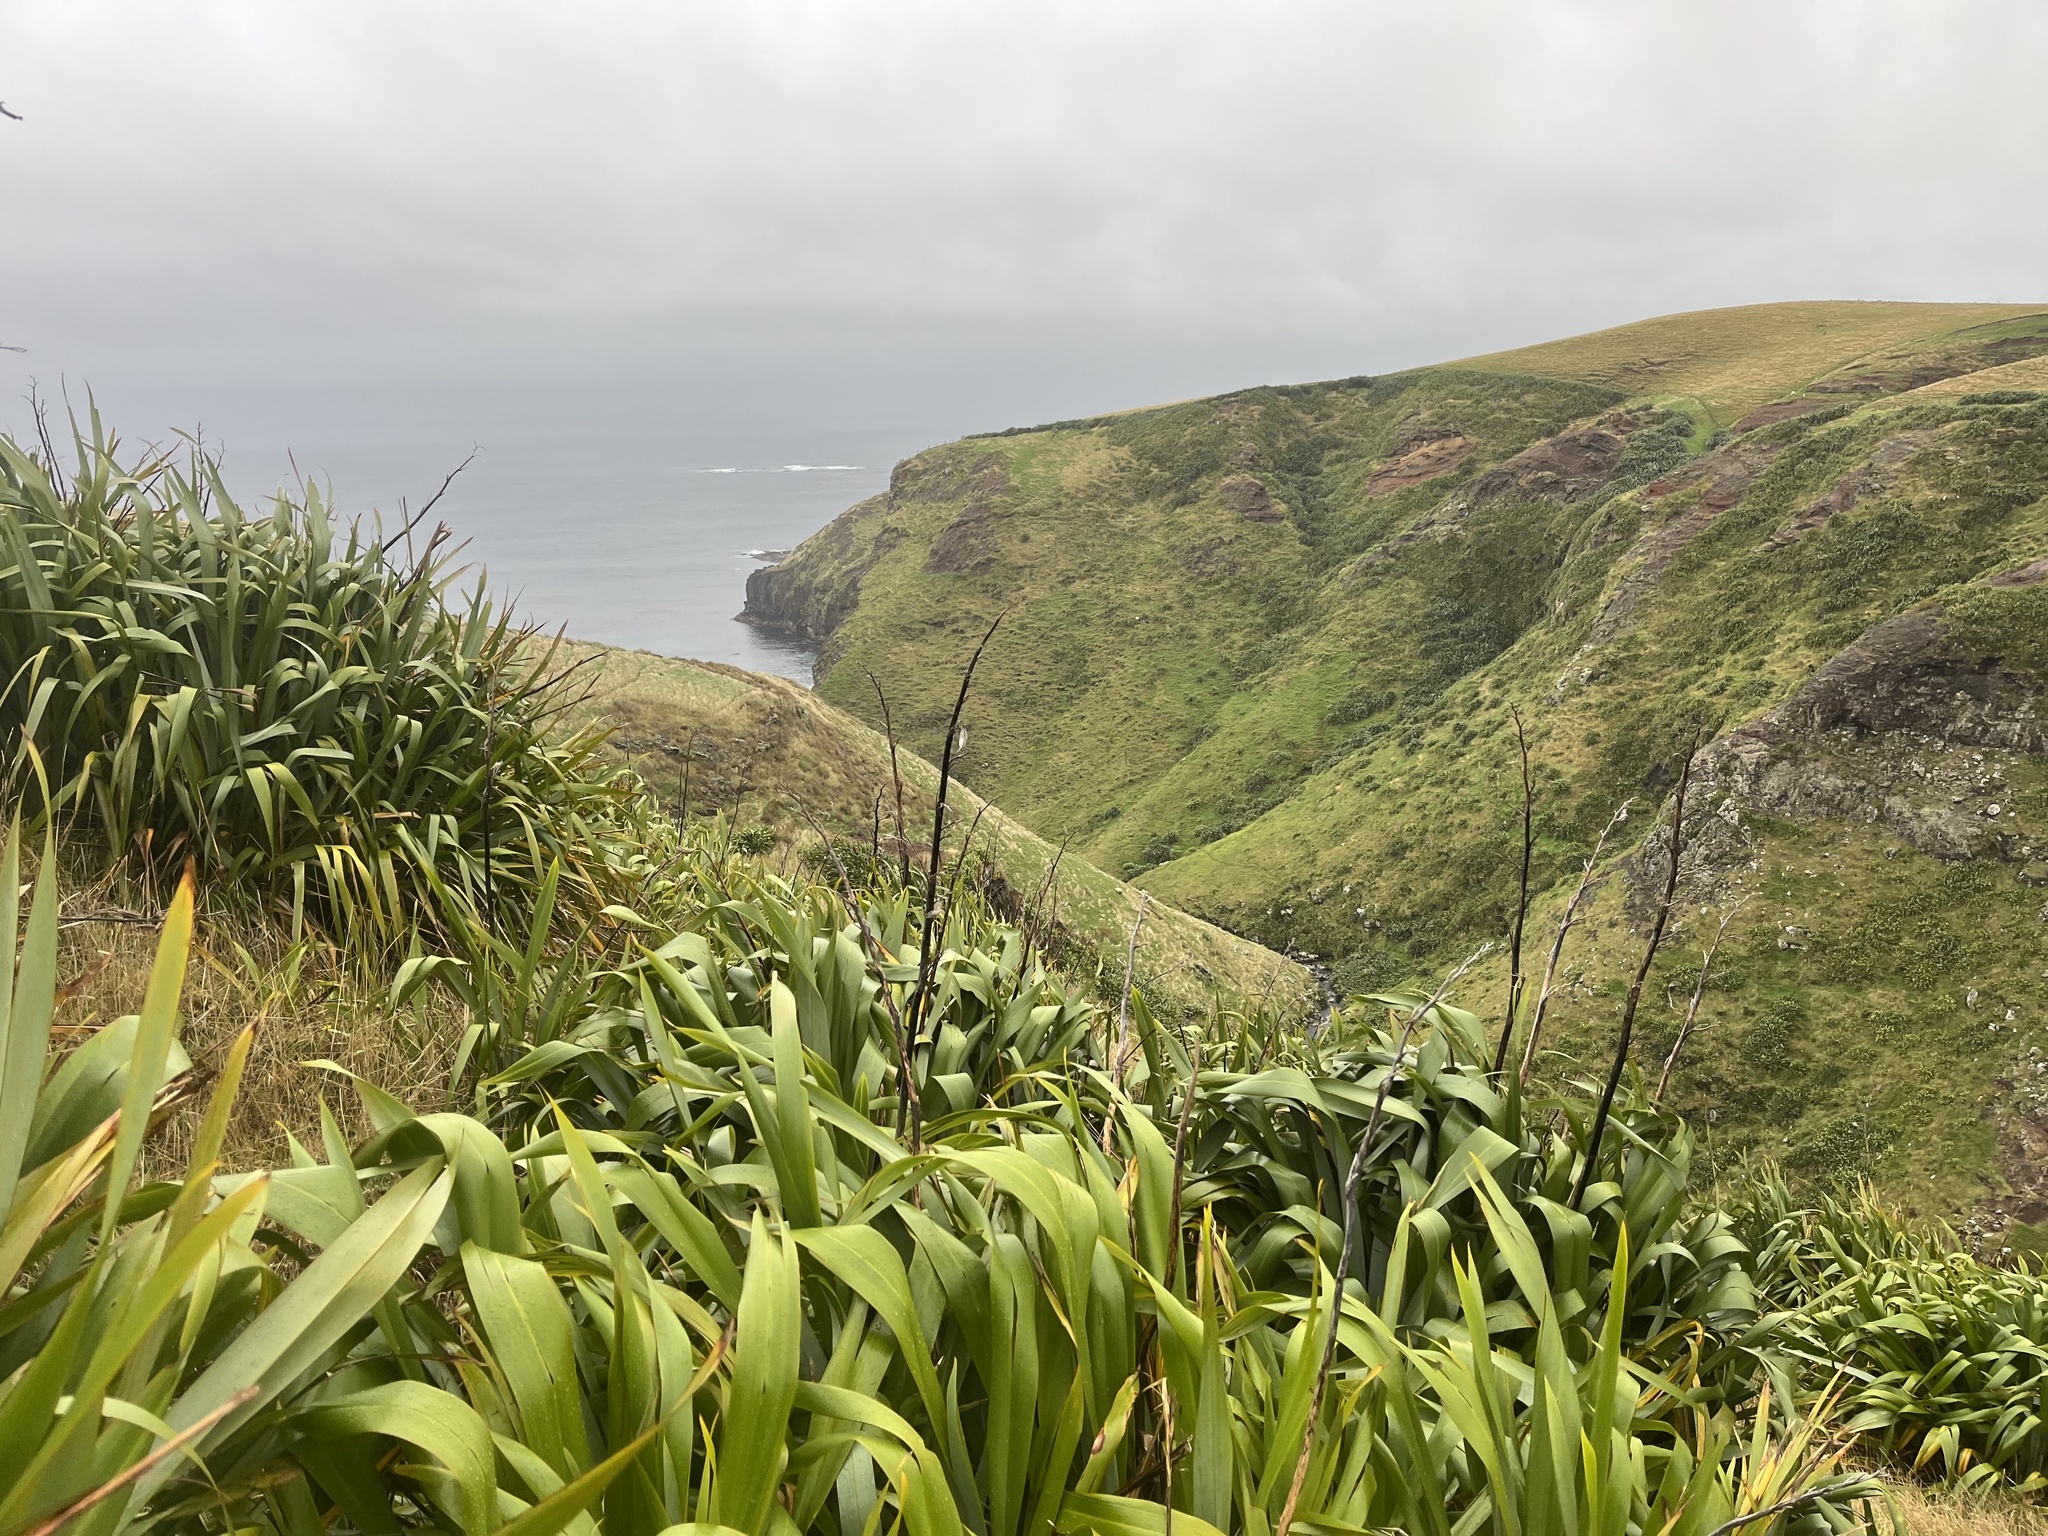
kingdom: Plantae
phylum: Tracheophyta
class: Liliopsida
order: Asparagales
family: Asphodelaceae
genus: Phormium
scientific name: Phormium tenax
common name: New zealand flax
